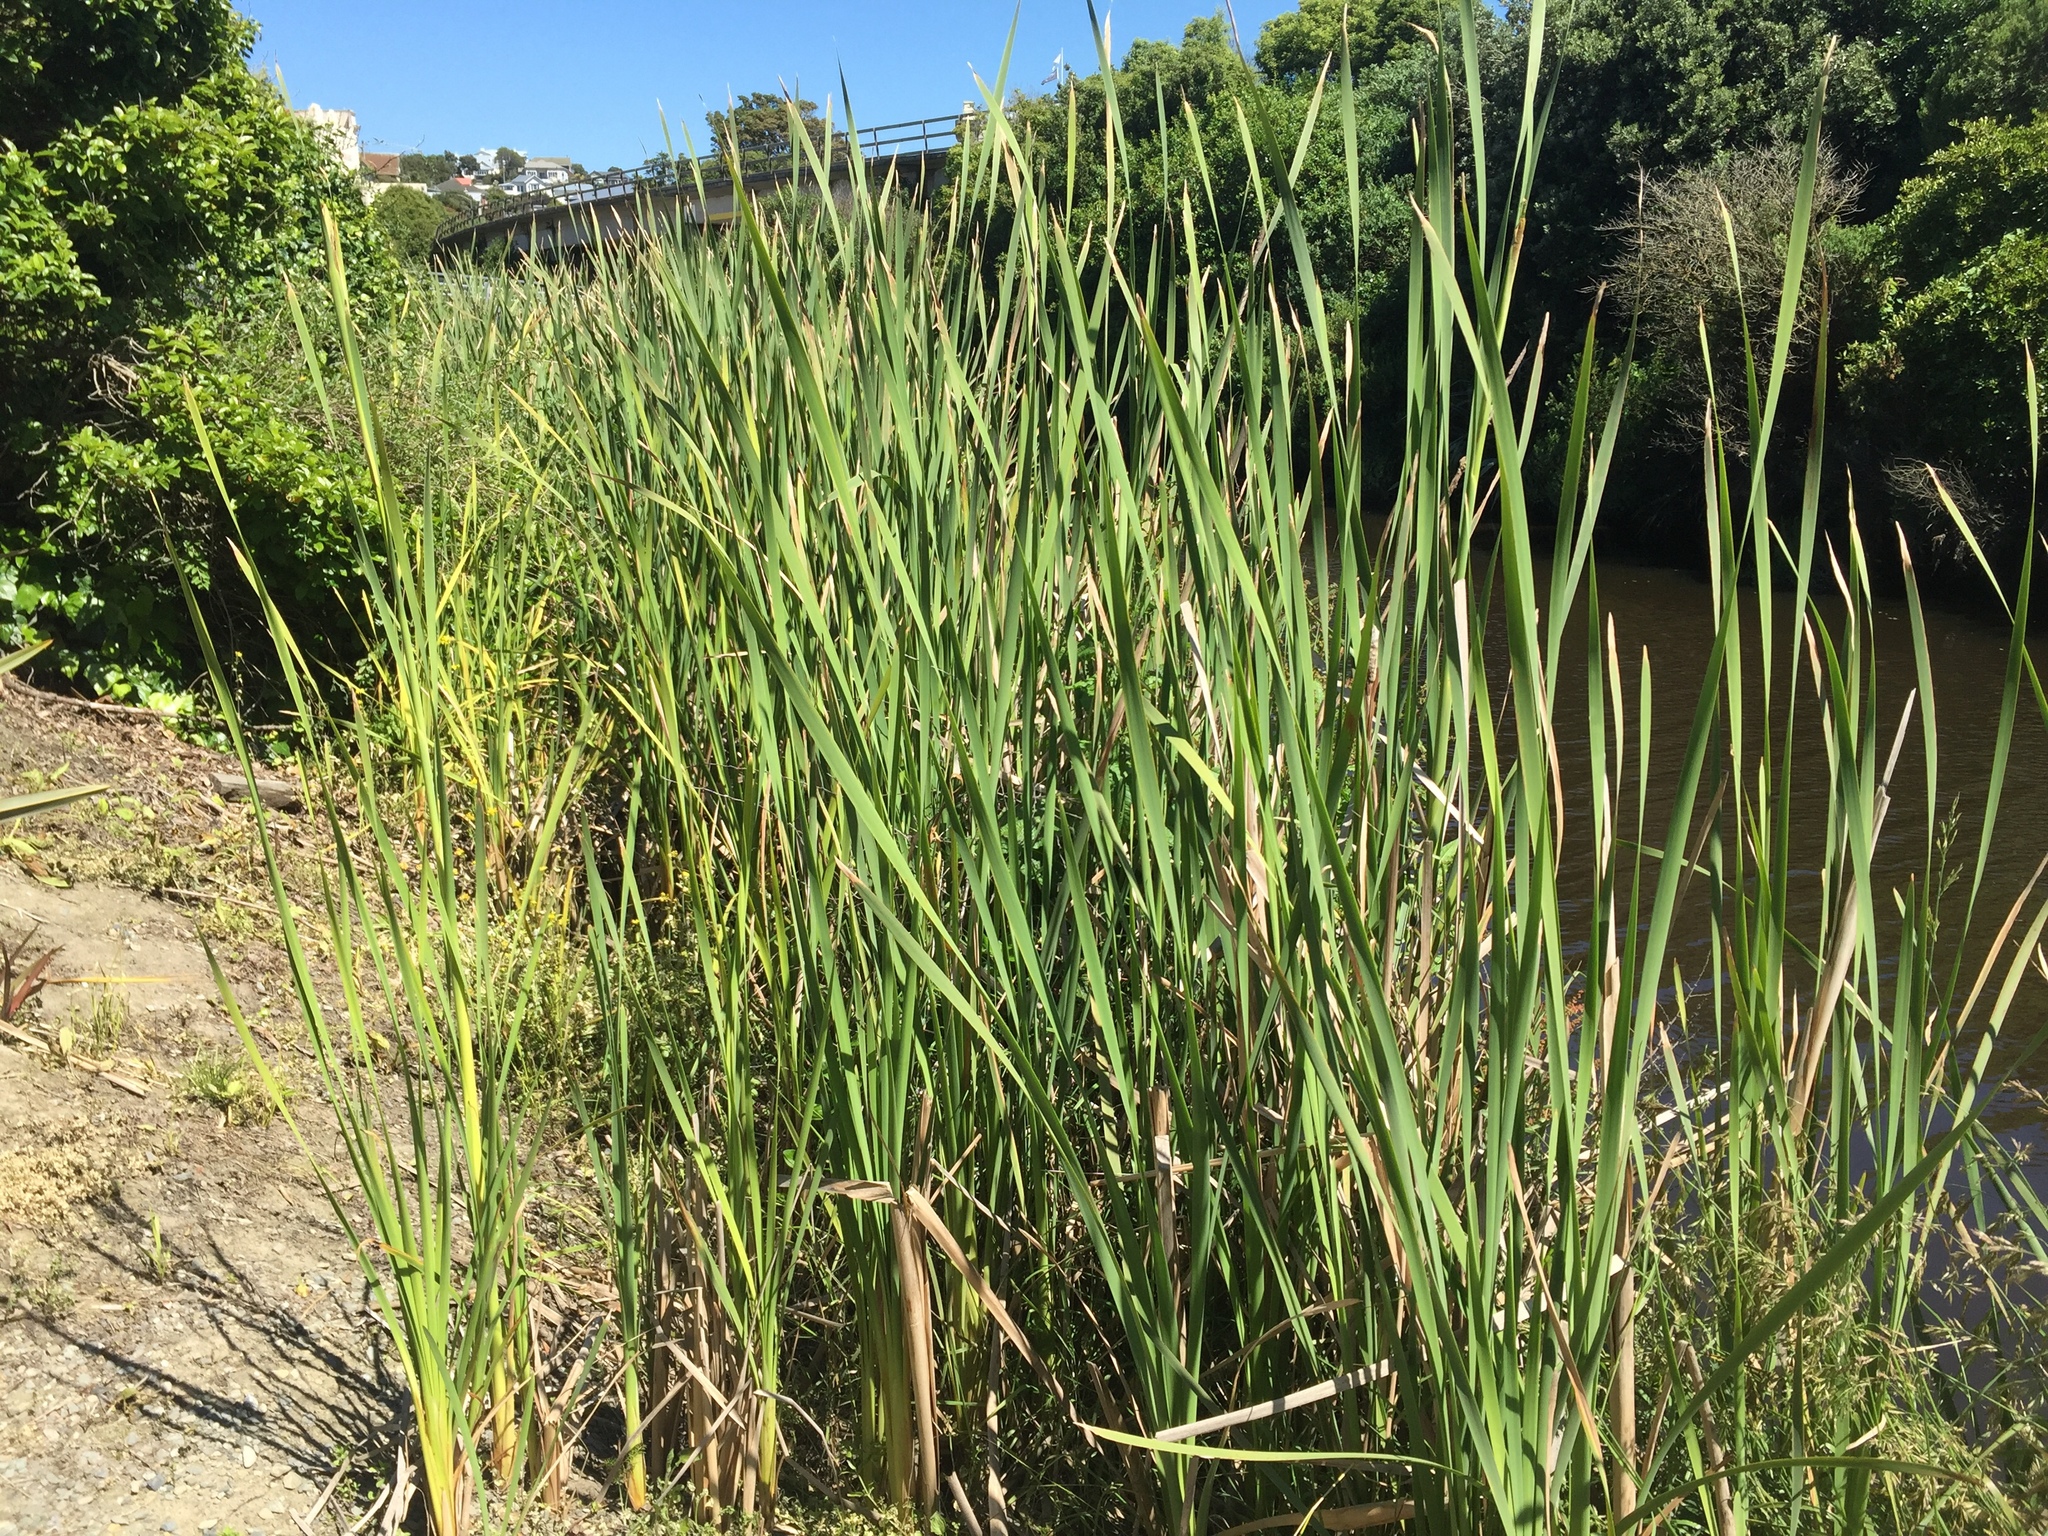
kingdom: Plantae
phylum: Tracheophyta
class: Liliopsida
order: Poales
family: Typhaceae
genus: Typha
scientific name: Typha orientalis
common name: Bullrush
